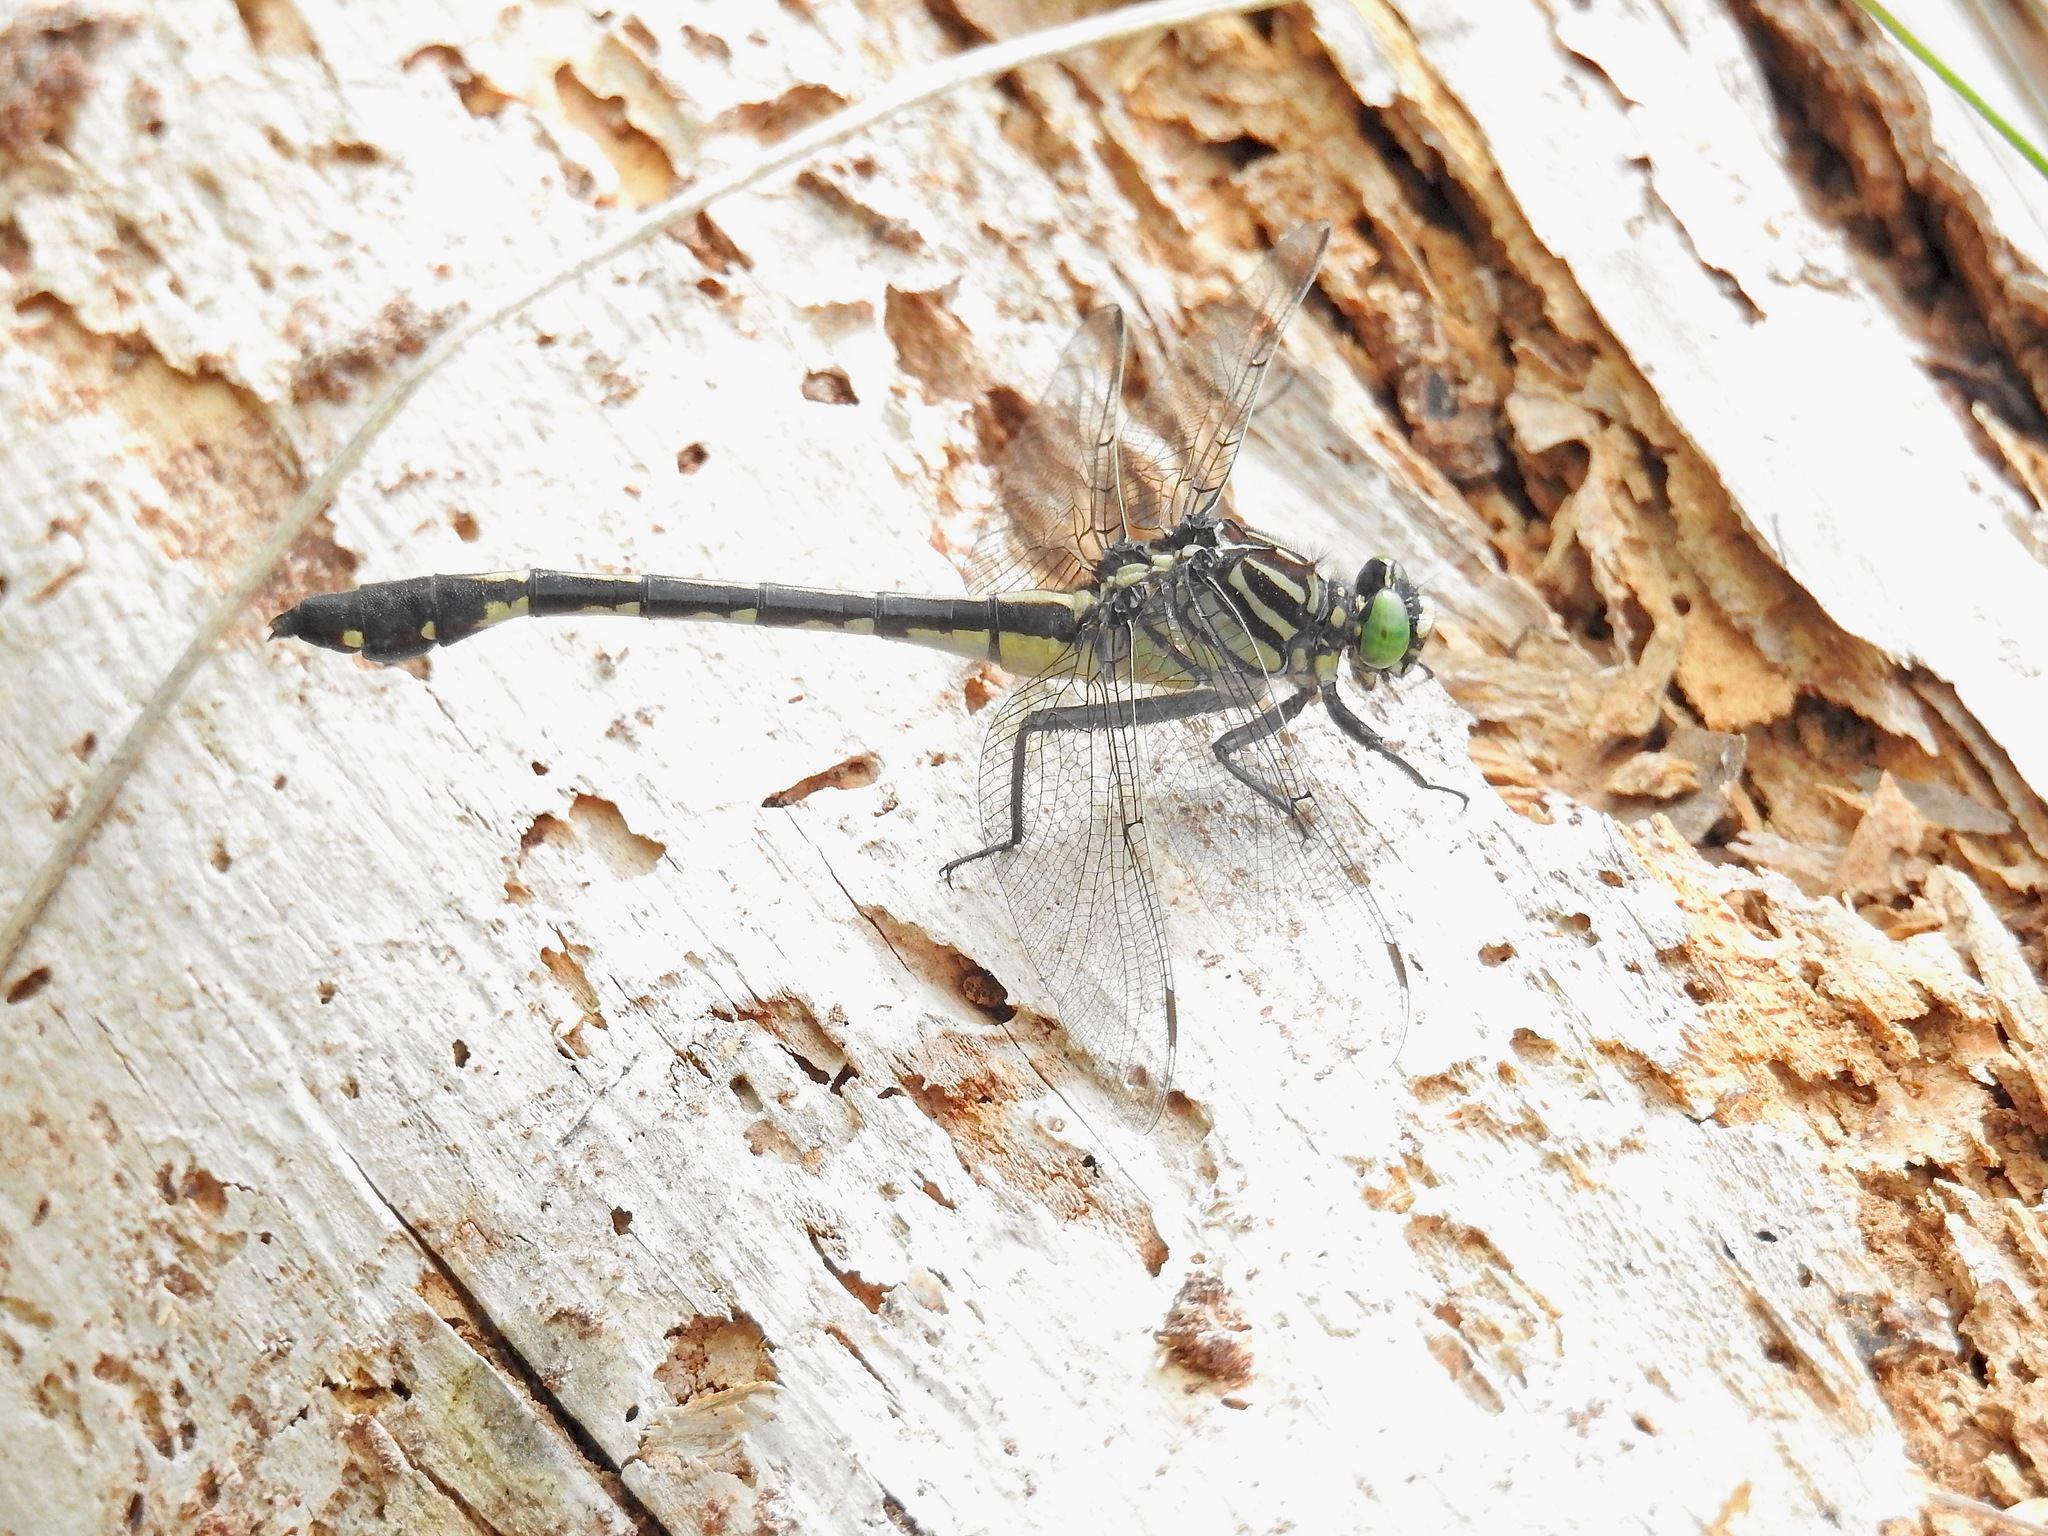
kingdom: Animalia
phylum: Arthropoda
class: Insecta
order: Odonata
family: Gomphidae
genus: Gomphurus
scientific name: Gomphurus dilatatus
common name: Blackwater clubtail
